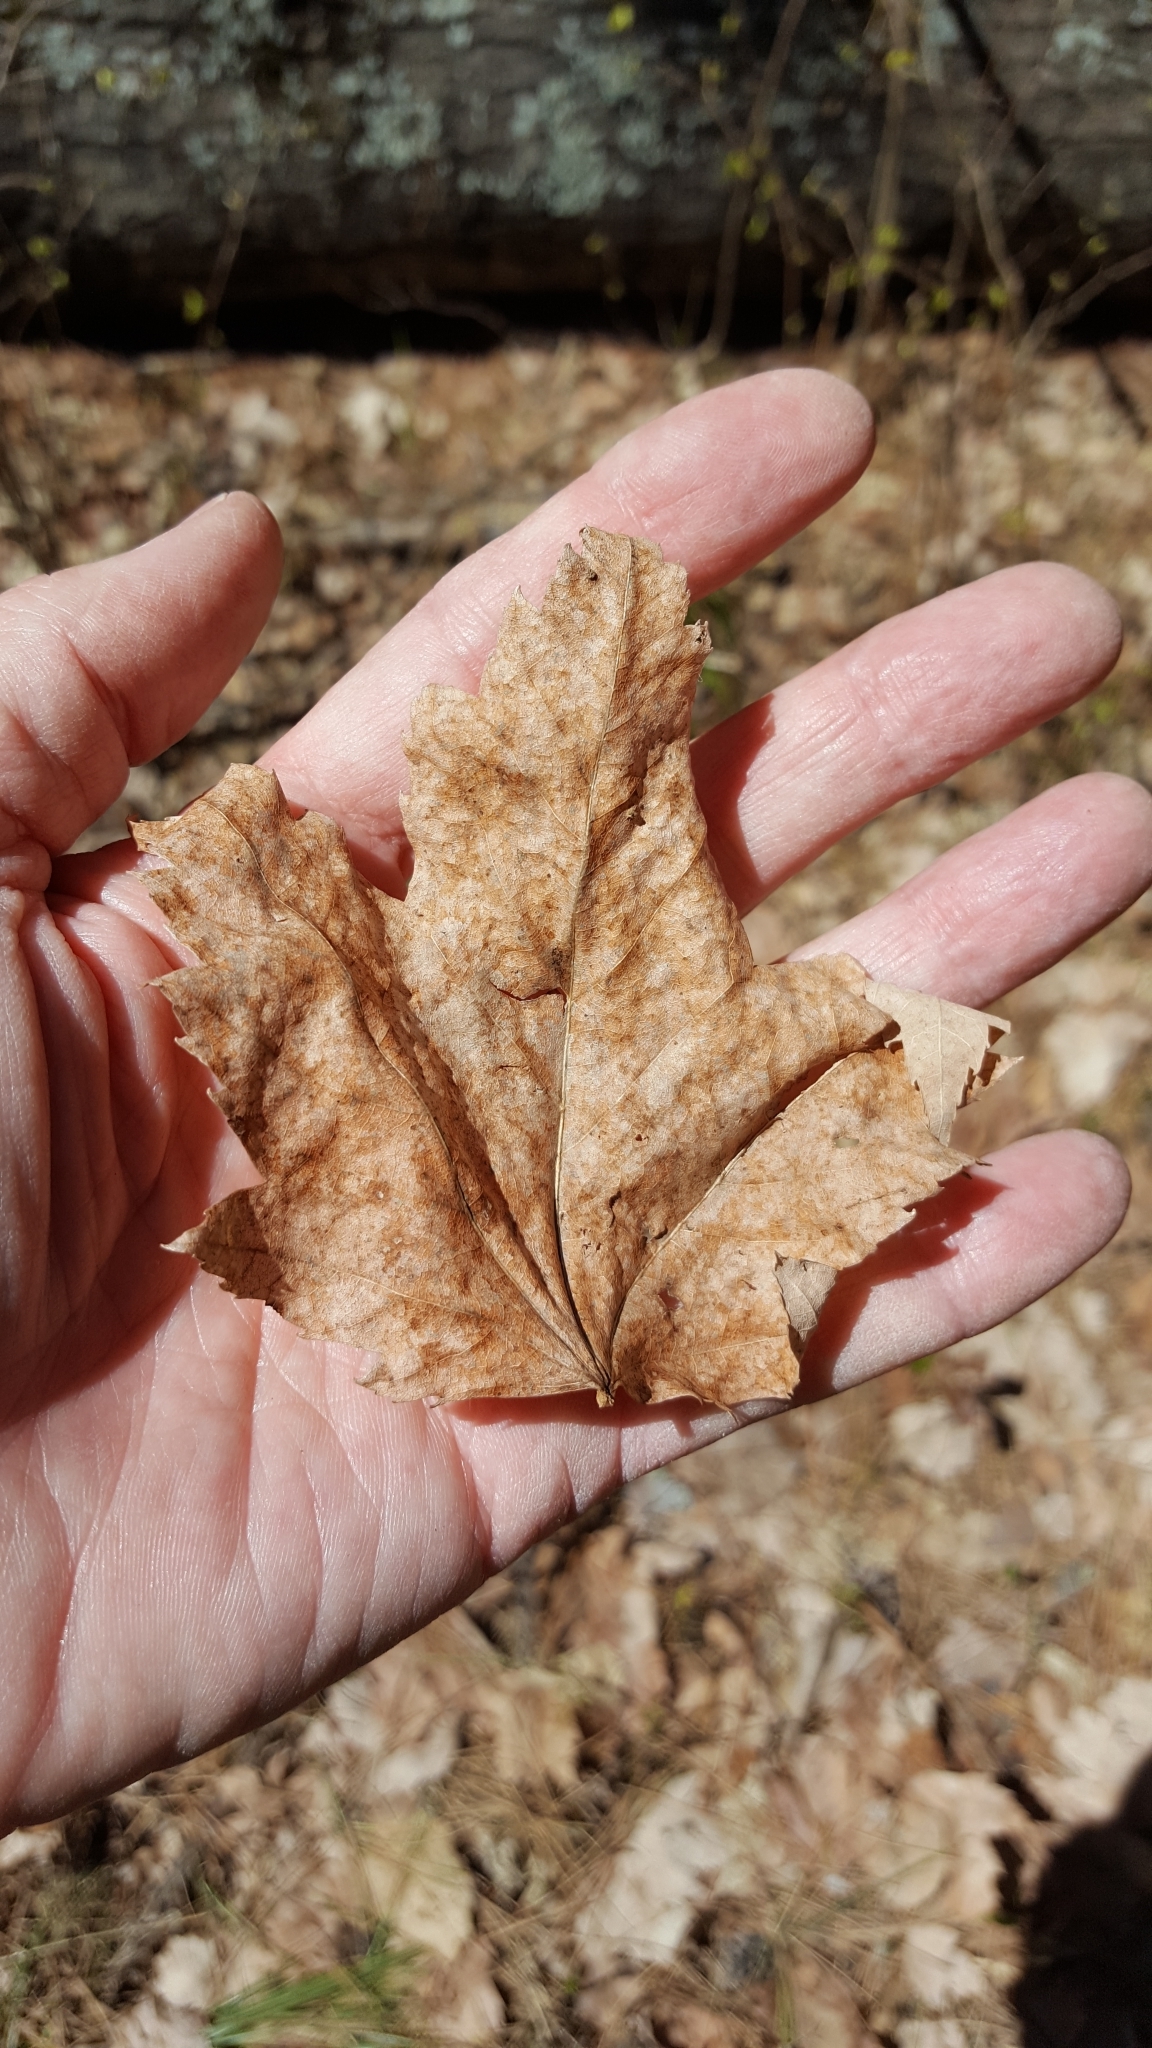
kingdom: Plantae
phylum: Tracheophyta
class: Magnoliopsida
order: Sapindales
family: Sapindaceae
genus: Acer
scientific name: Acer rubrum
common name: Red maple
